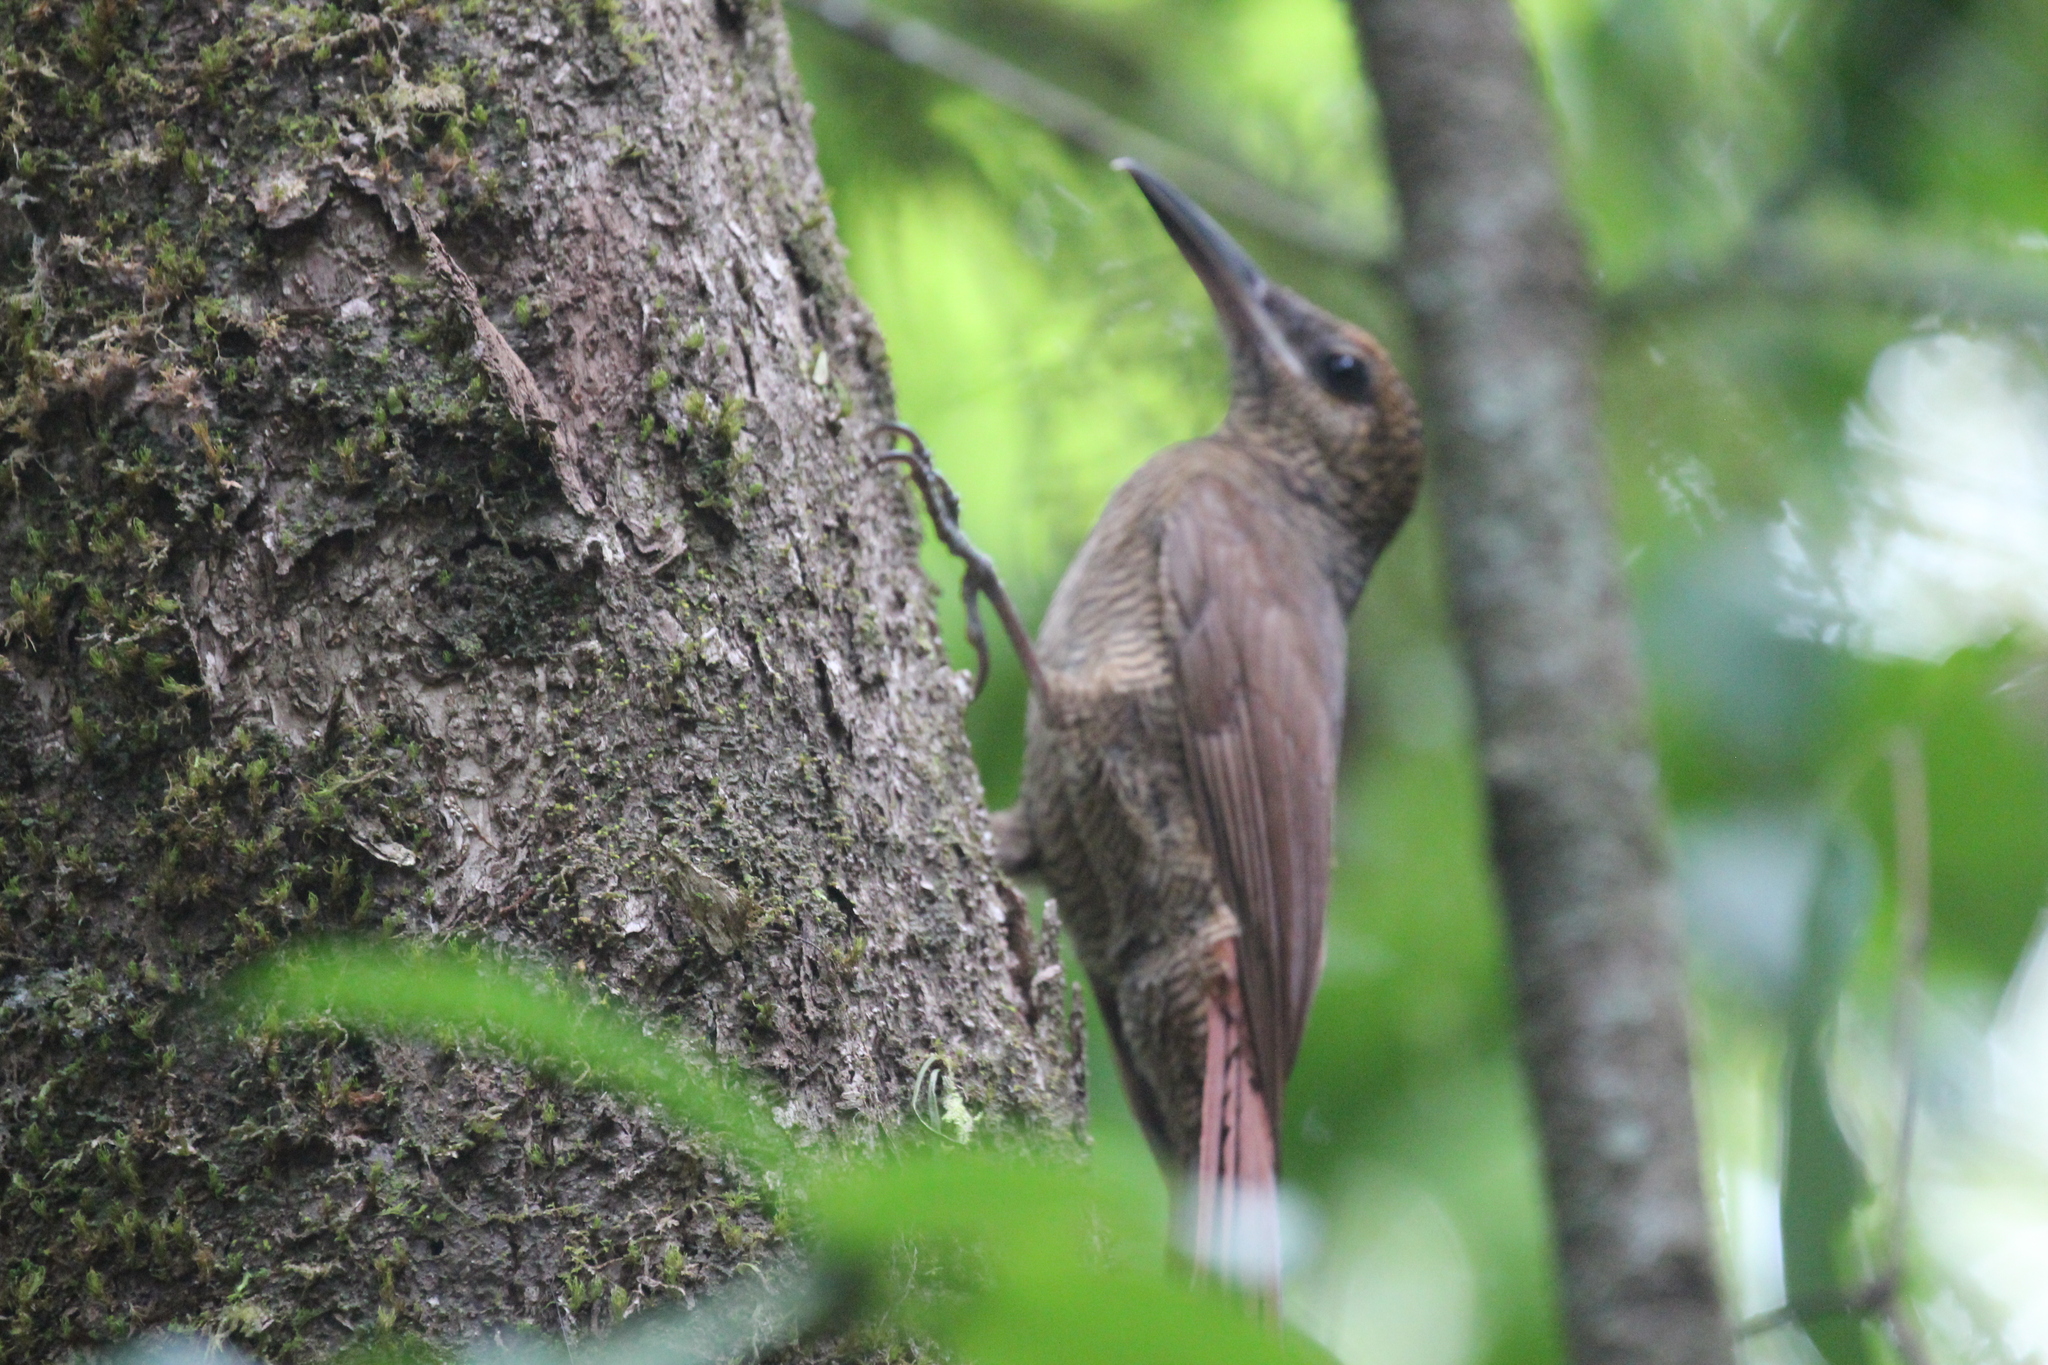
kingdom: Animalia
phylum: Chordata
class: Aves
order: Passeriformes
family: Furnariidae
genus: Dendrocolaptes
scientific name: Dendrocolaptes sanctithomae
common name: Northern barred-woodcreeper
